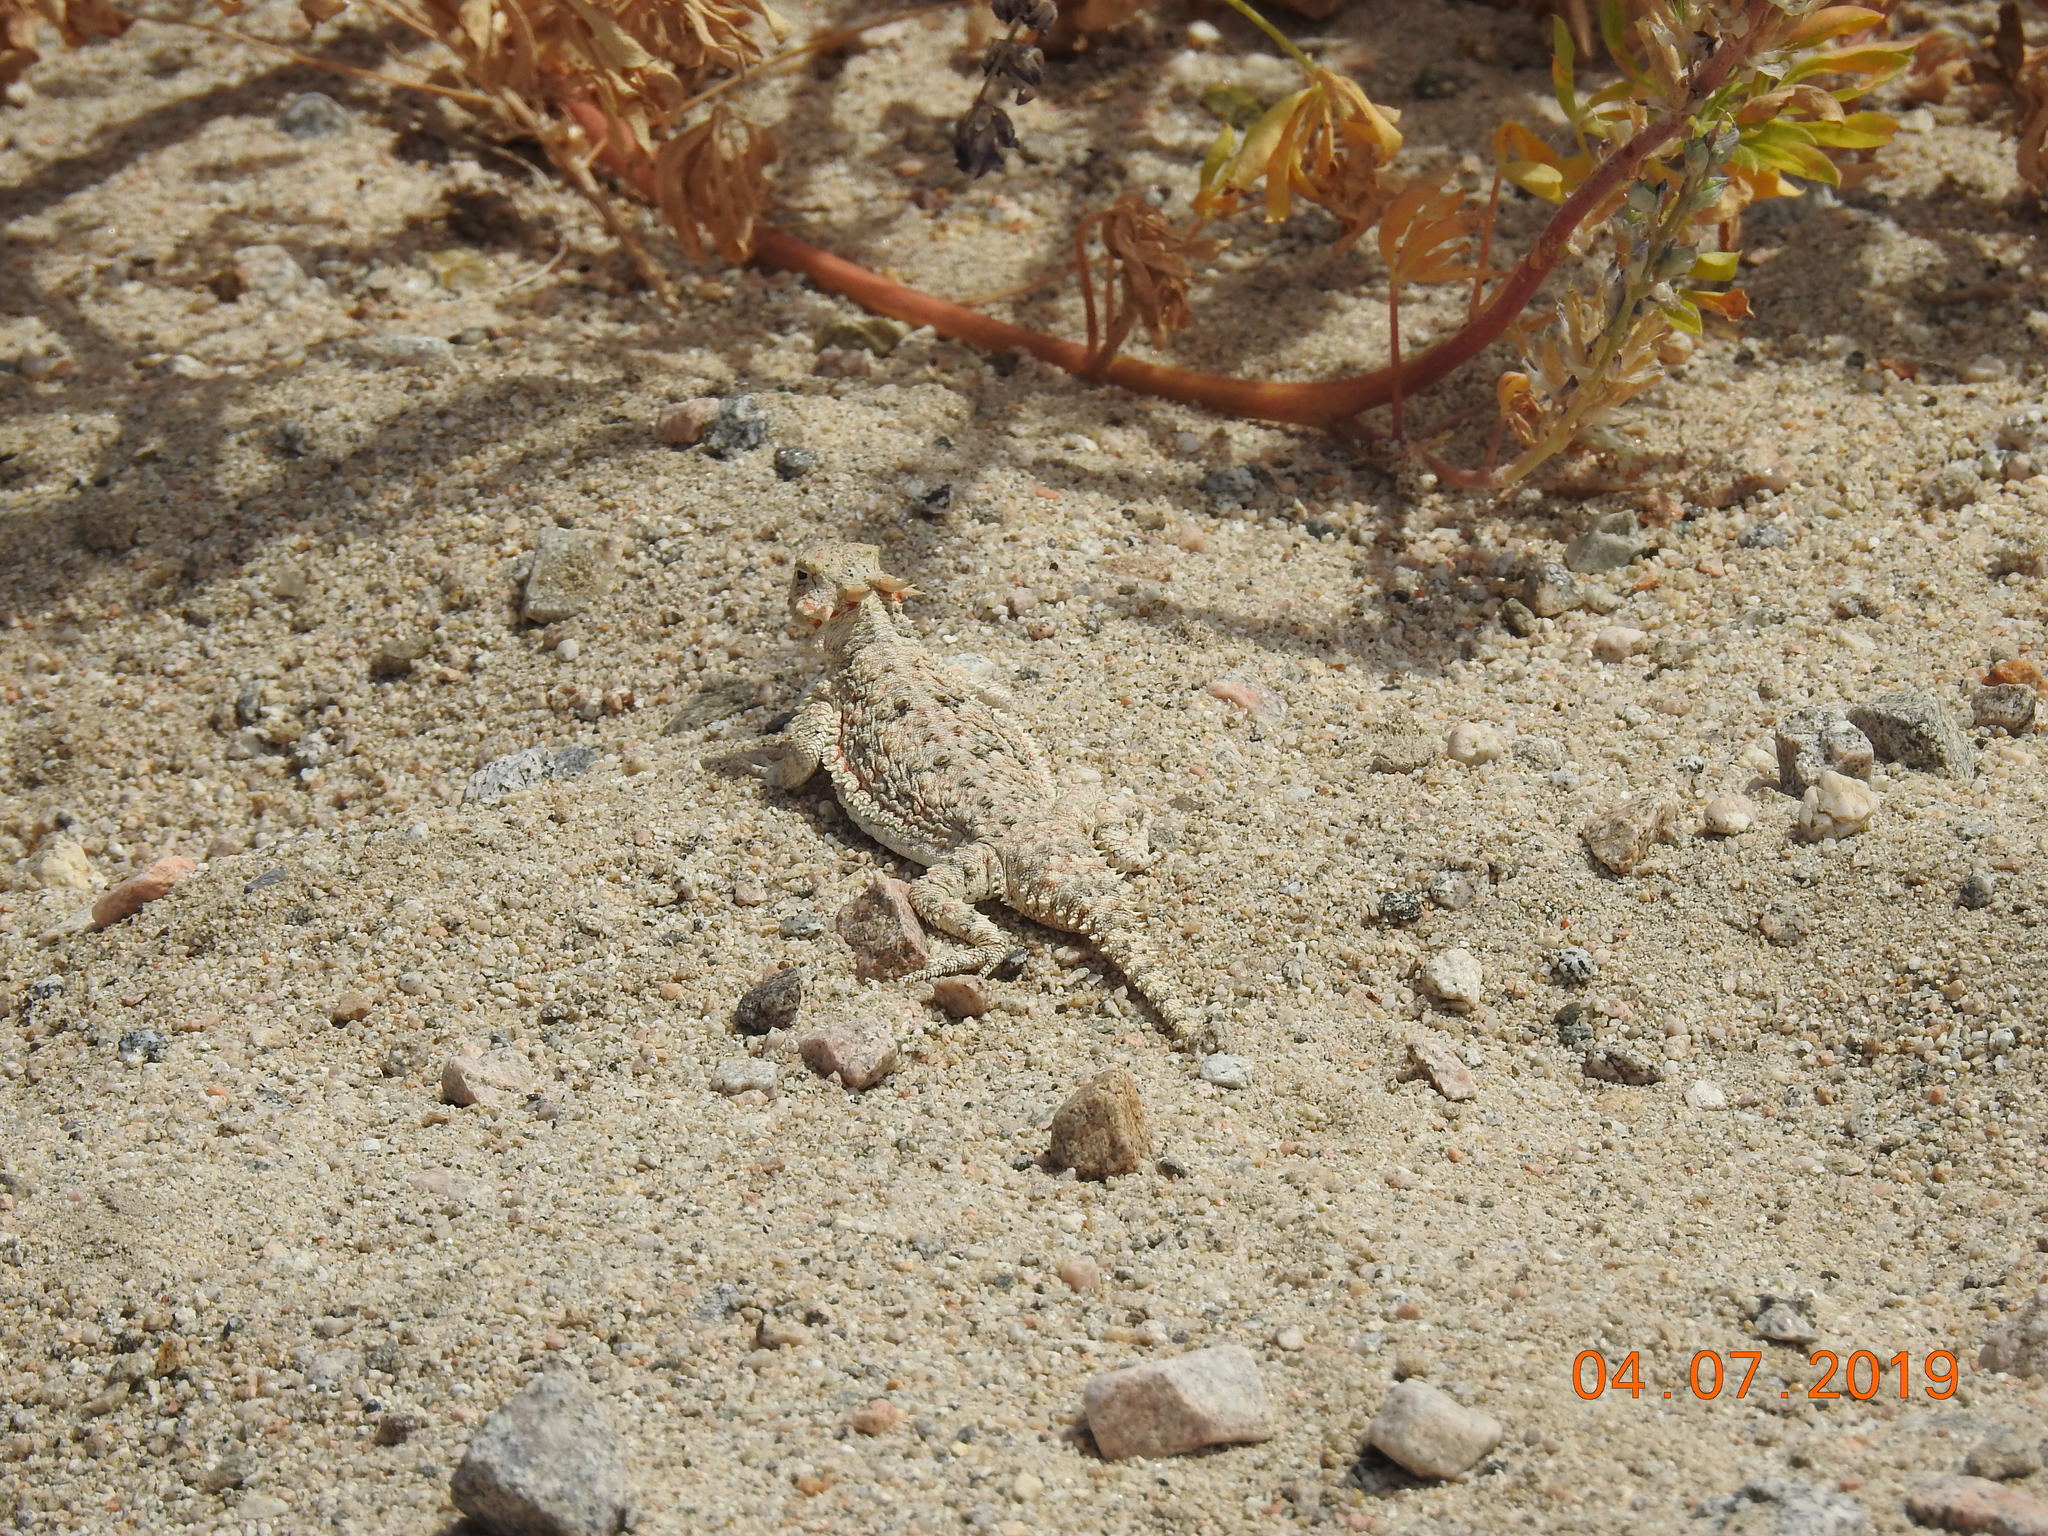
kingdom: Animalia
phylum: Chordata
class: Squamata
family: Phrynosomatidae
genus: Phrynosoma
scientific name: Phrynosoma platyrhinos
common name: Desert horned lizard
